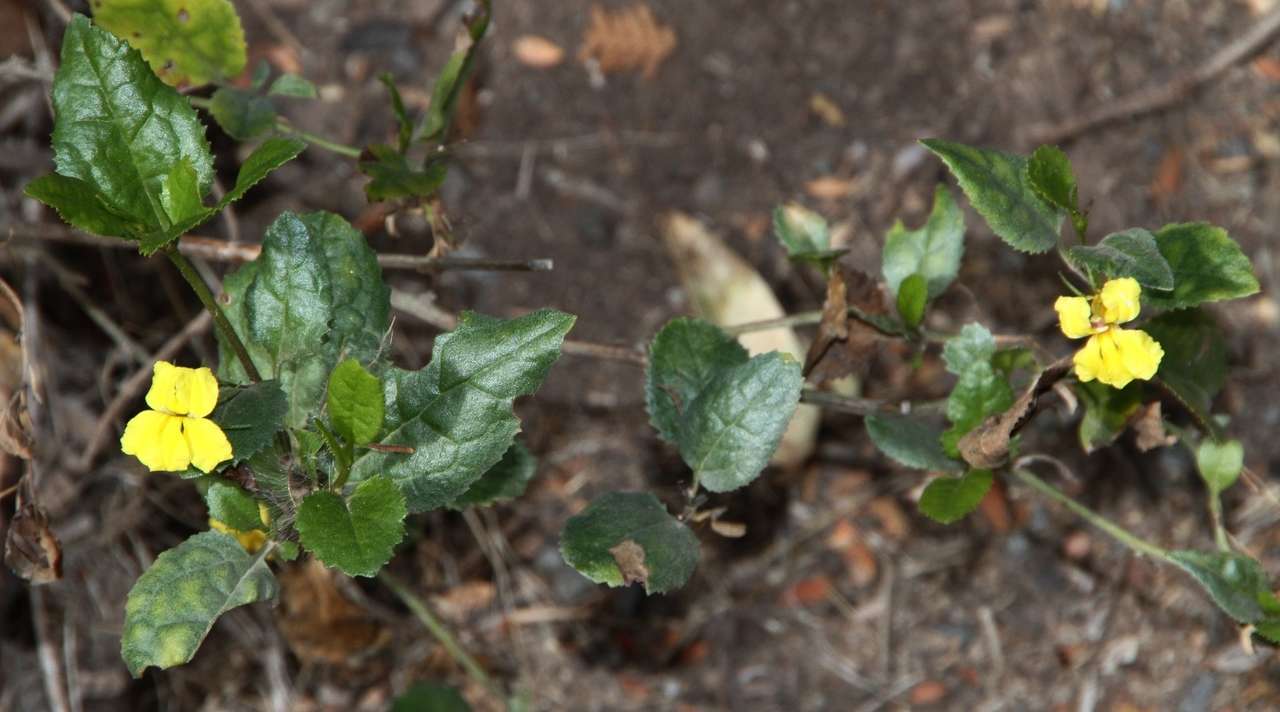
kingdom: Plantae
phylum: Tracheophyta
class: Magnoliopsida
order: Asterales
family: Goodeniaceae
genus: Goodenia
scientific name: Goodenia ovata
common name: Hop goodenia
